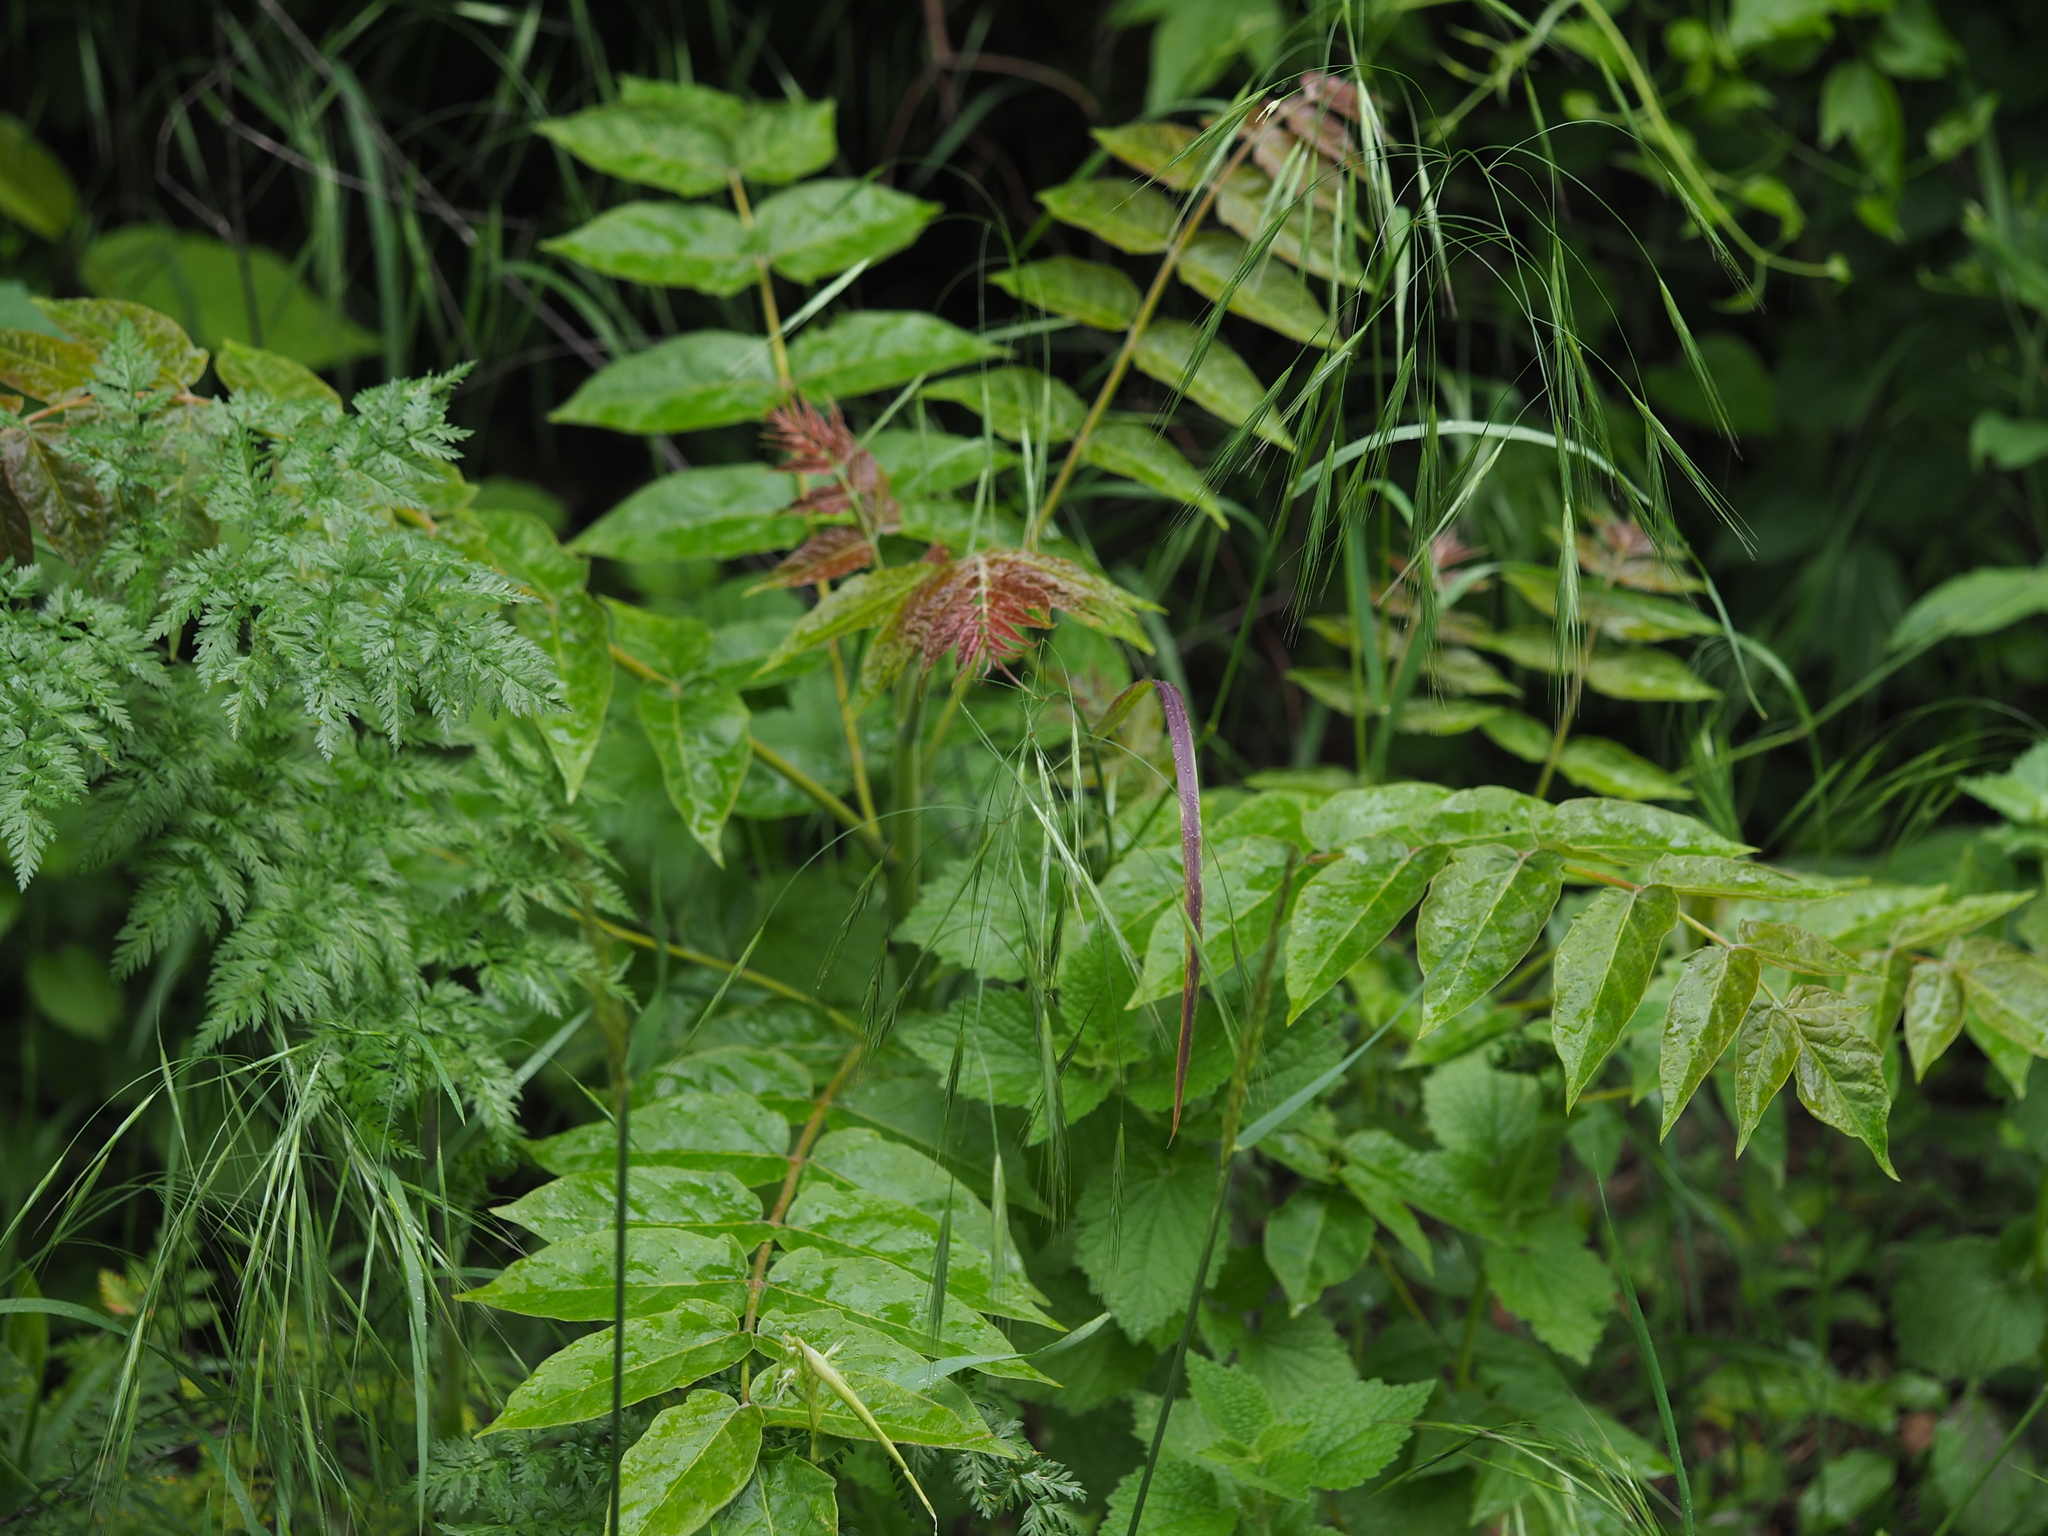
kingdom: Plantae
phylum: Tracheophyta
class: Magnoliopsida
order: Sapindales
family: Simaroubaceae
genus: Ailanthus
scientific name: Ailanthus altissima
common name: Tree-of-heaven
